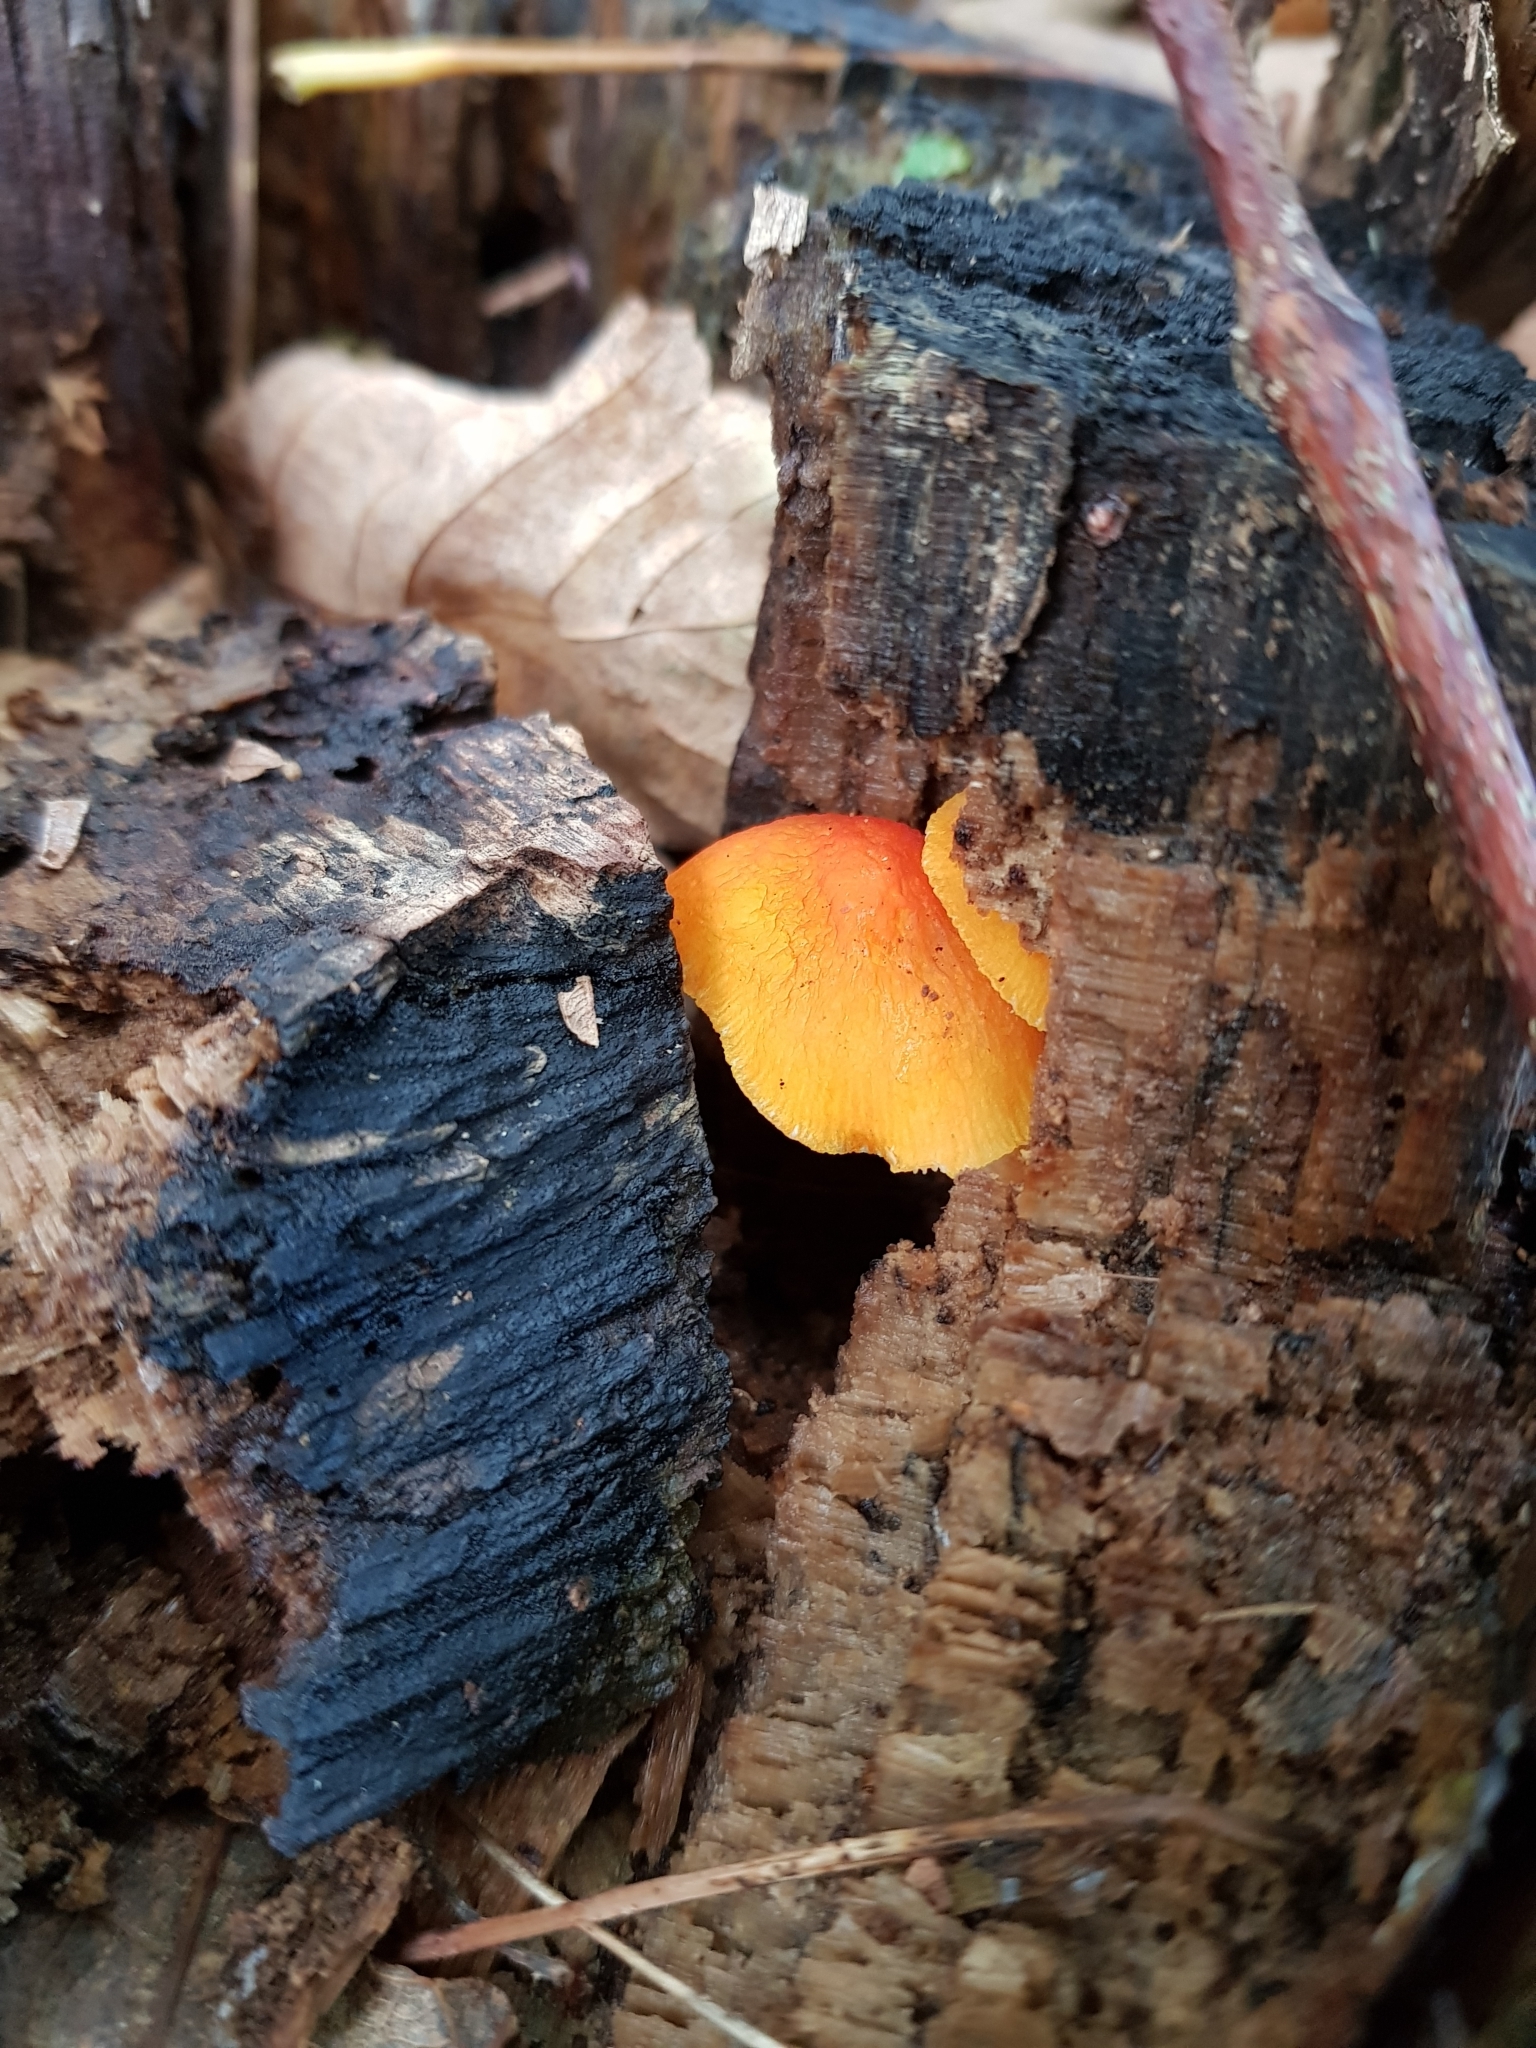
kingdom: Fungi
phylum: Basidiomycota
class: Agaricomycetes
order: Agaricales
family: Pluteaceae
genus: Pluteus
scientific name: Pluteus aurantiorugosus
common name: Flame shield
